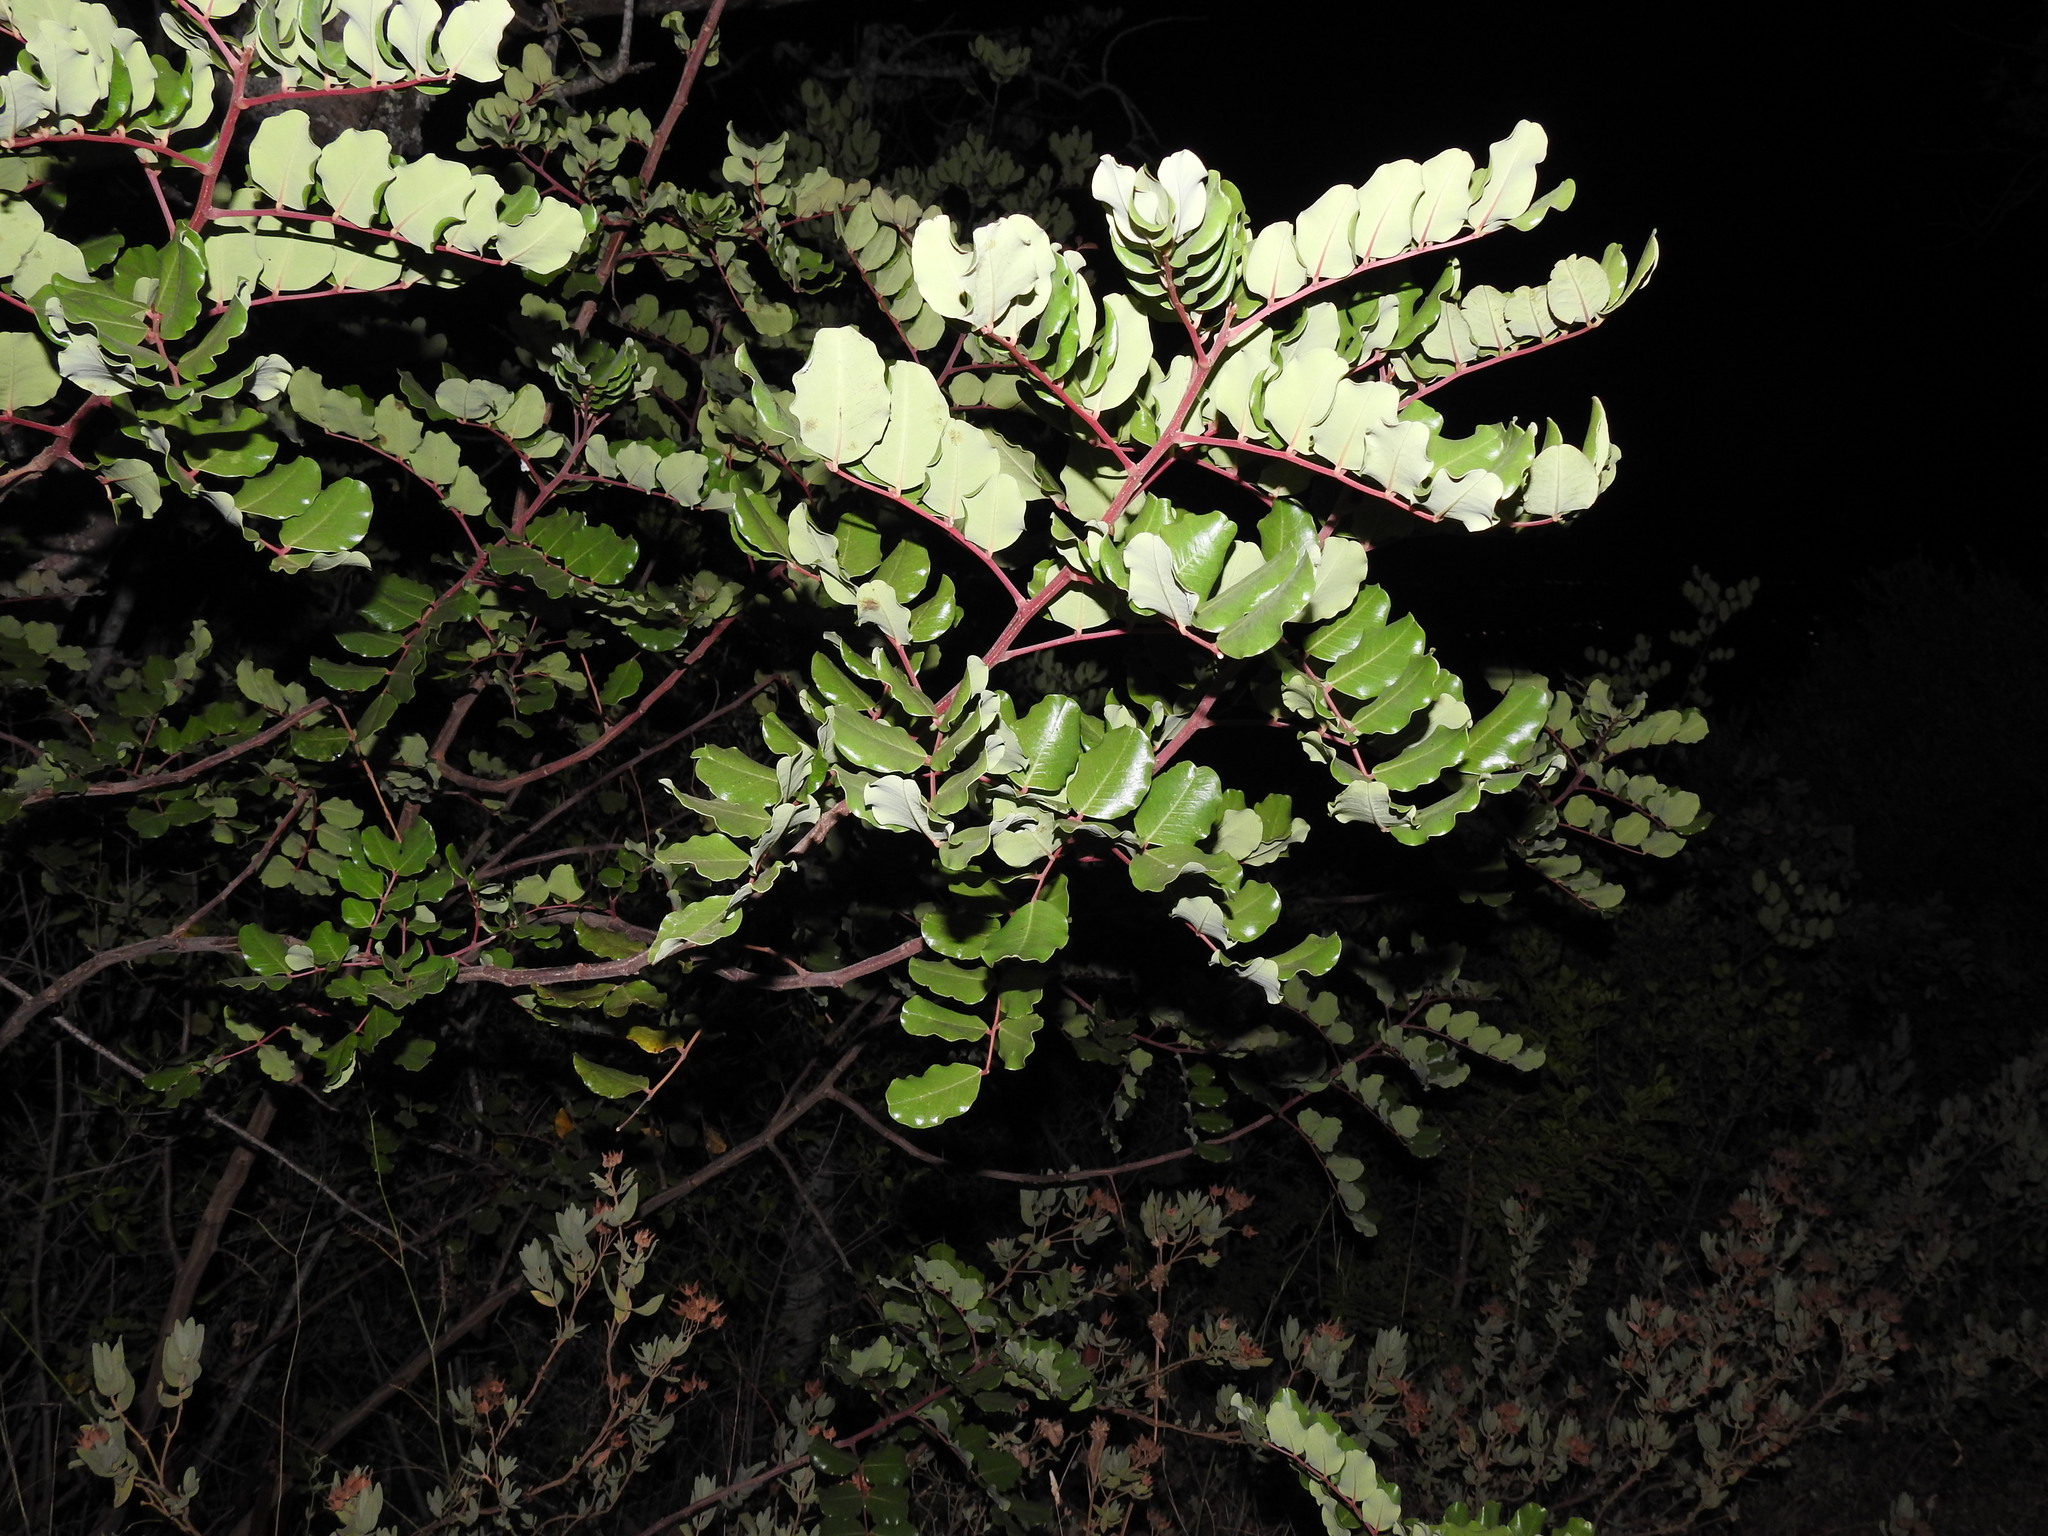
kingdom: Plantae
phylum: Tracheophyta
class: Magnoliopsida
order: Fabales
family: Fabaceae
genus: Ceratonia
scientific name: Ceratonia siliqua
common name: Carob
